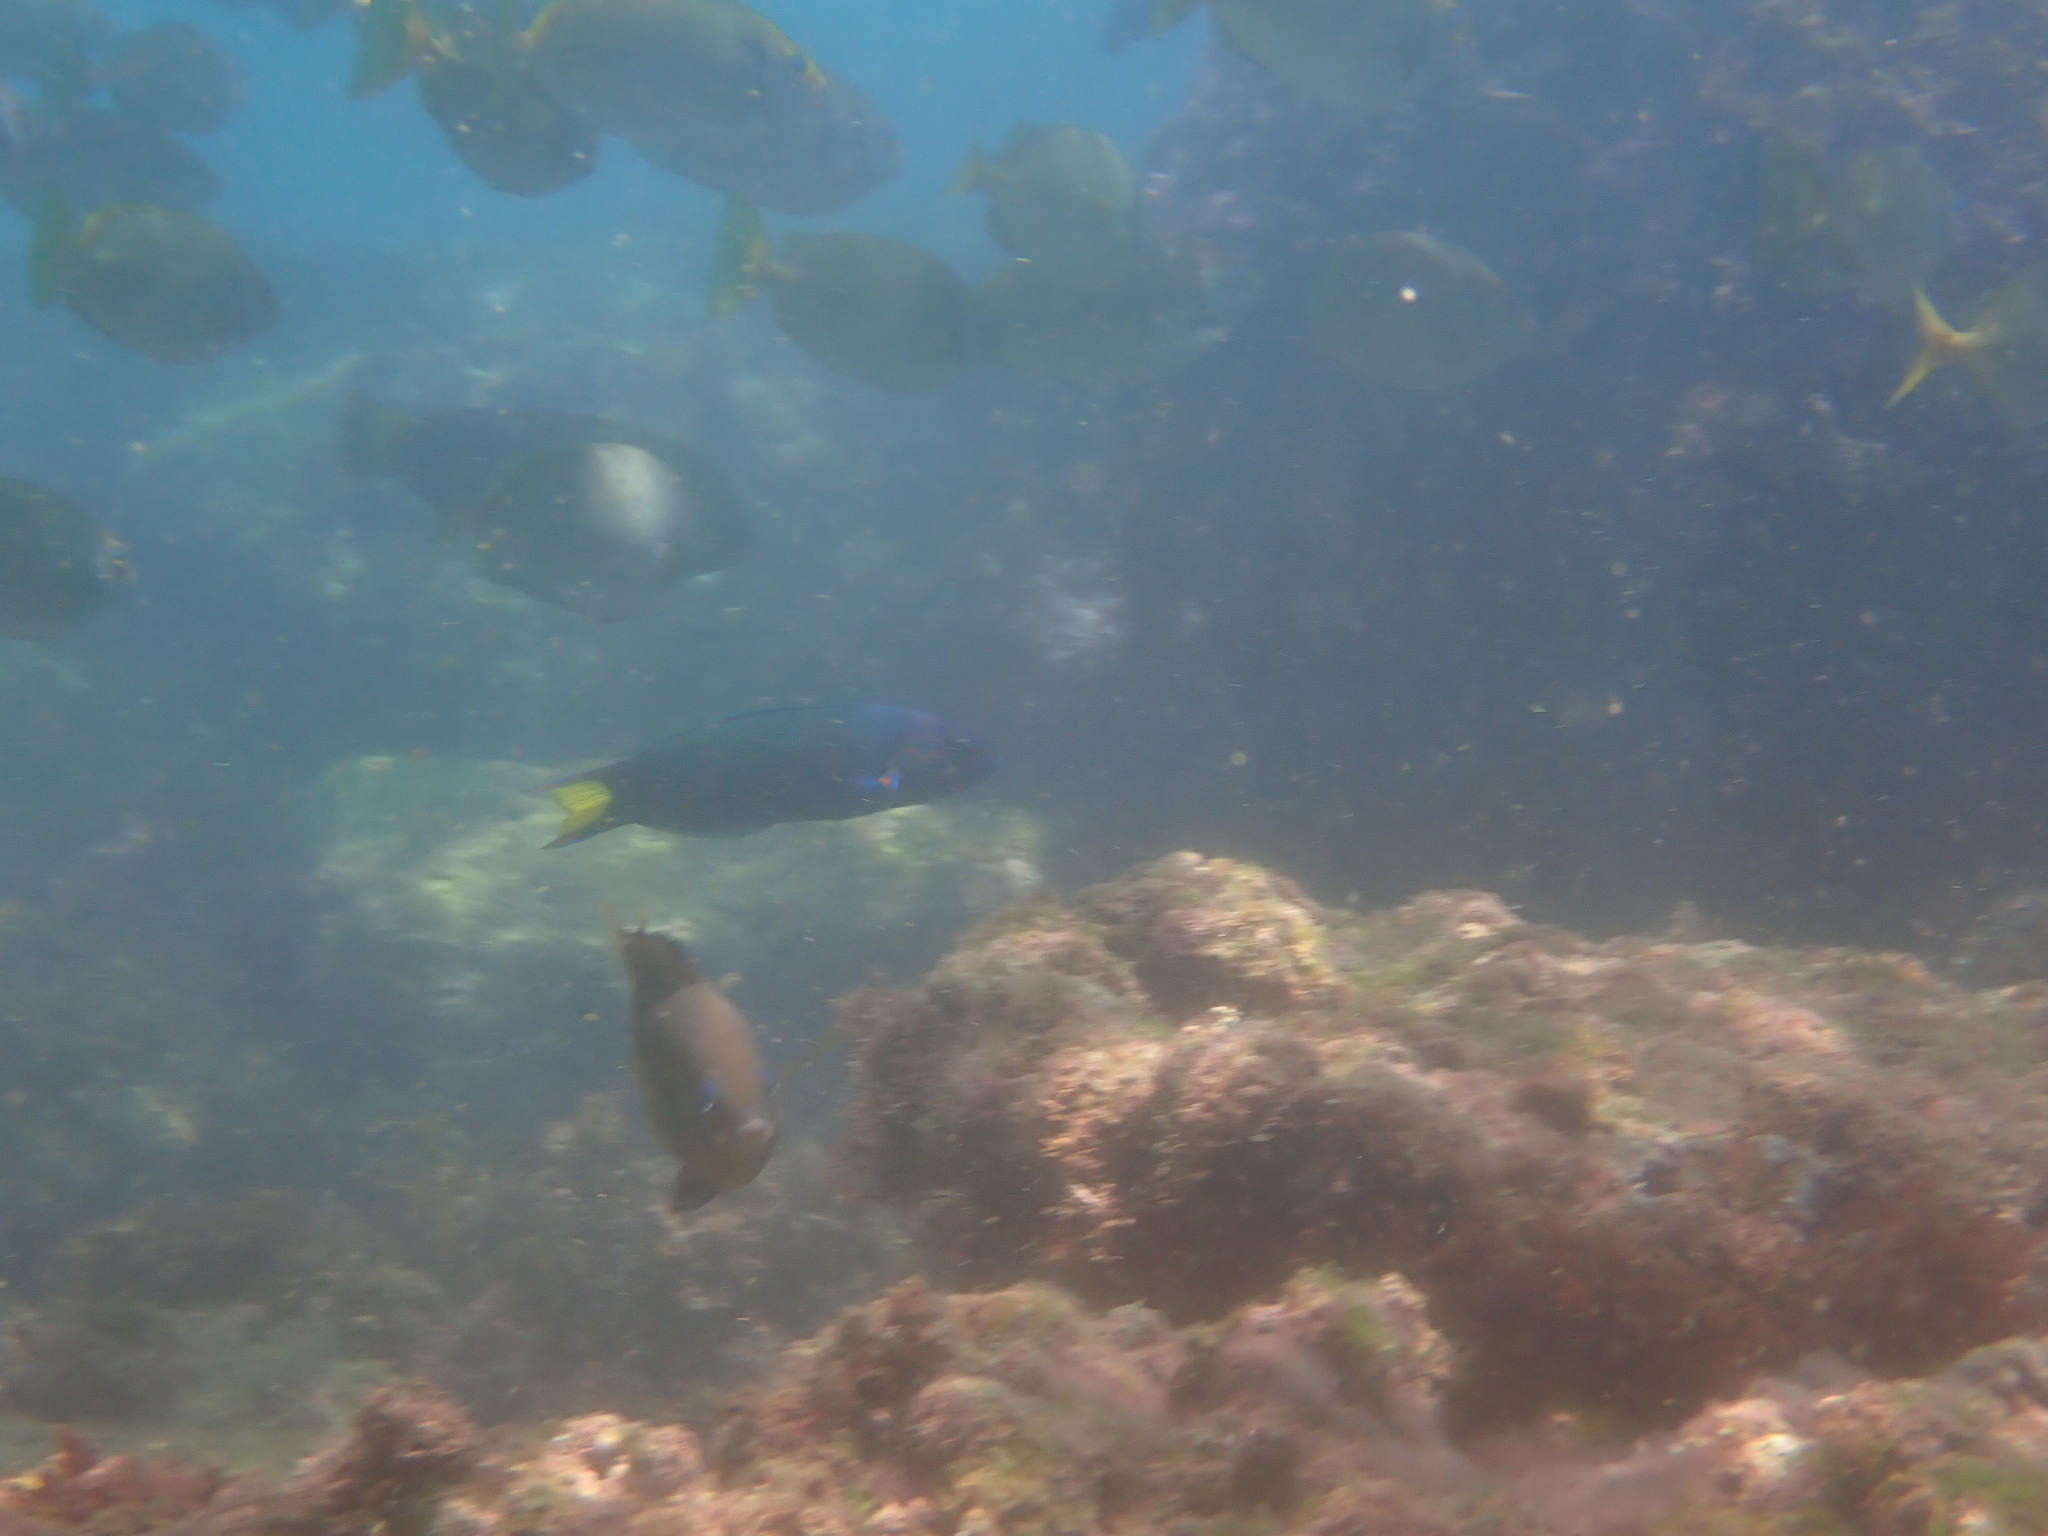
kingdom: Animalia
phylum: Chordata
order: Perciformes
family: Labridae
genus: Thalassoma
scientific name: Thalassoma lunare
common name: Blue wrasse
